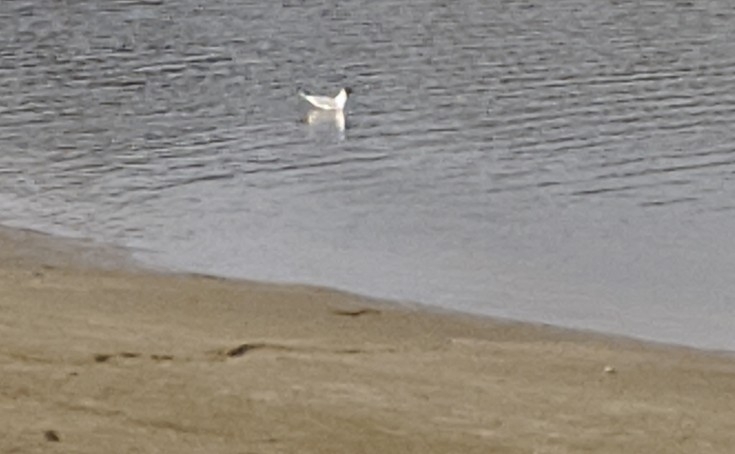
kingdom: Animalia
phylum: Chordata
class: Aves
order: Charadriiformes
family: Laridae
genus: Chroicocephalus
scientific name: Chroicocephalus ridibundus
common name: Black-headed gull
